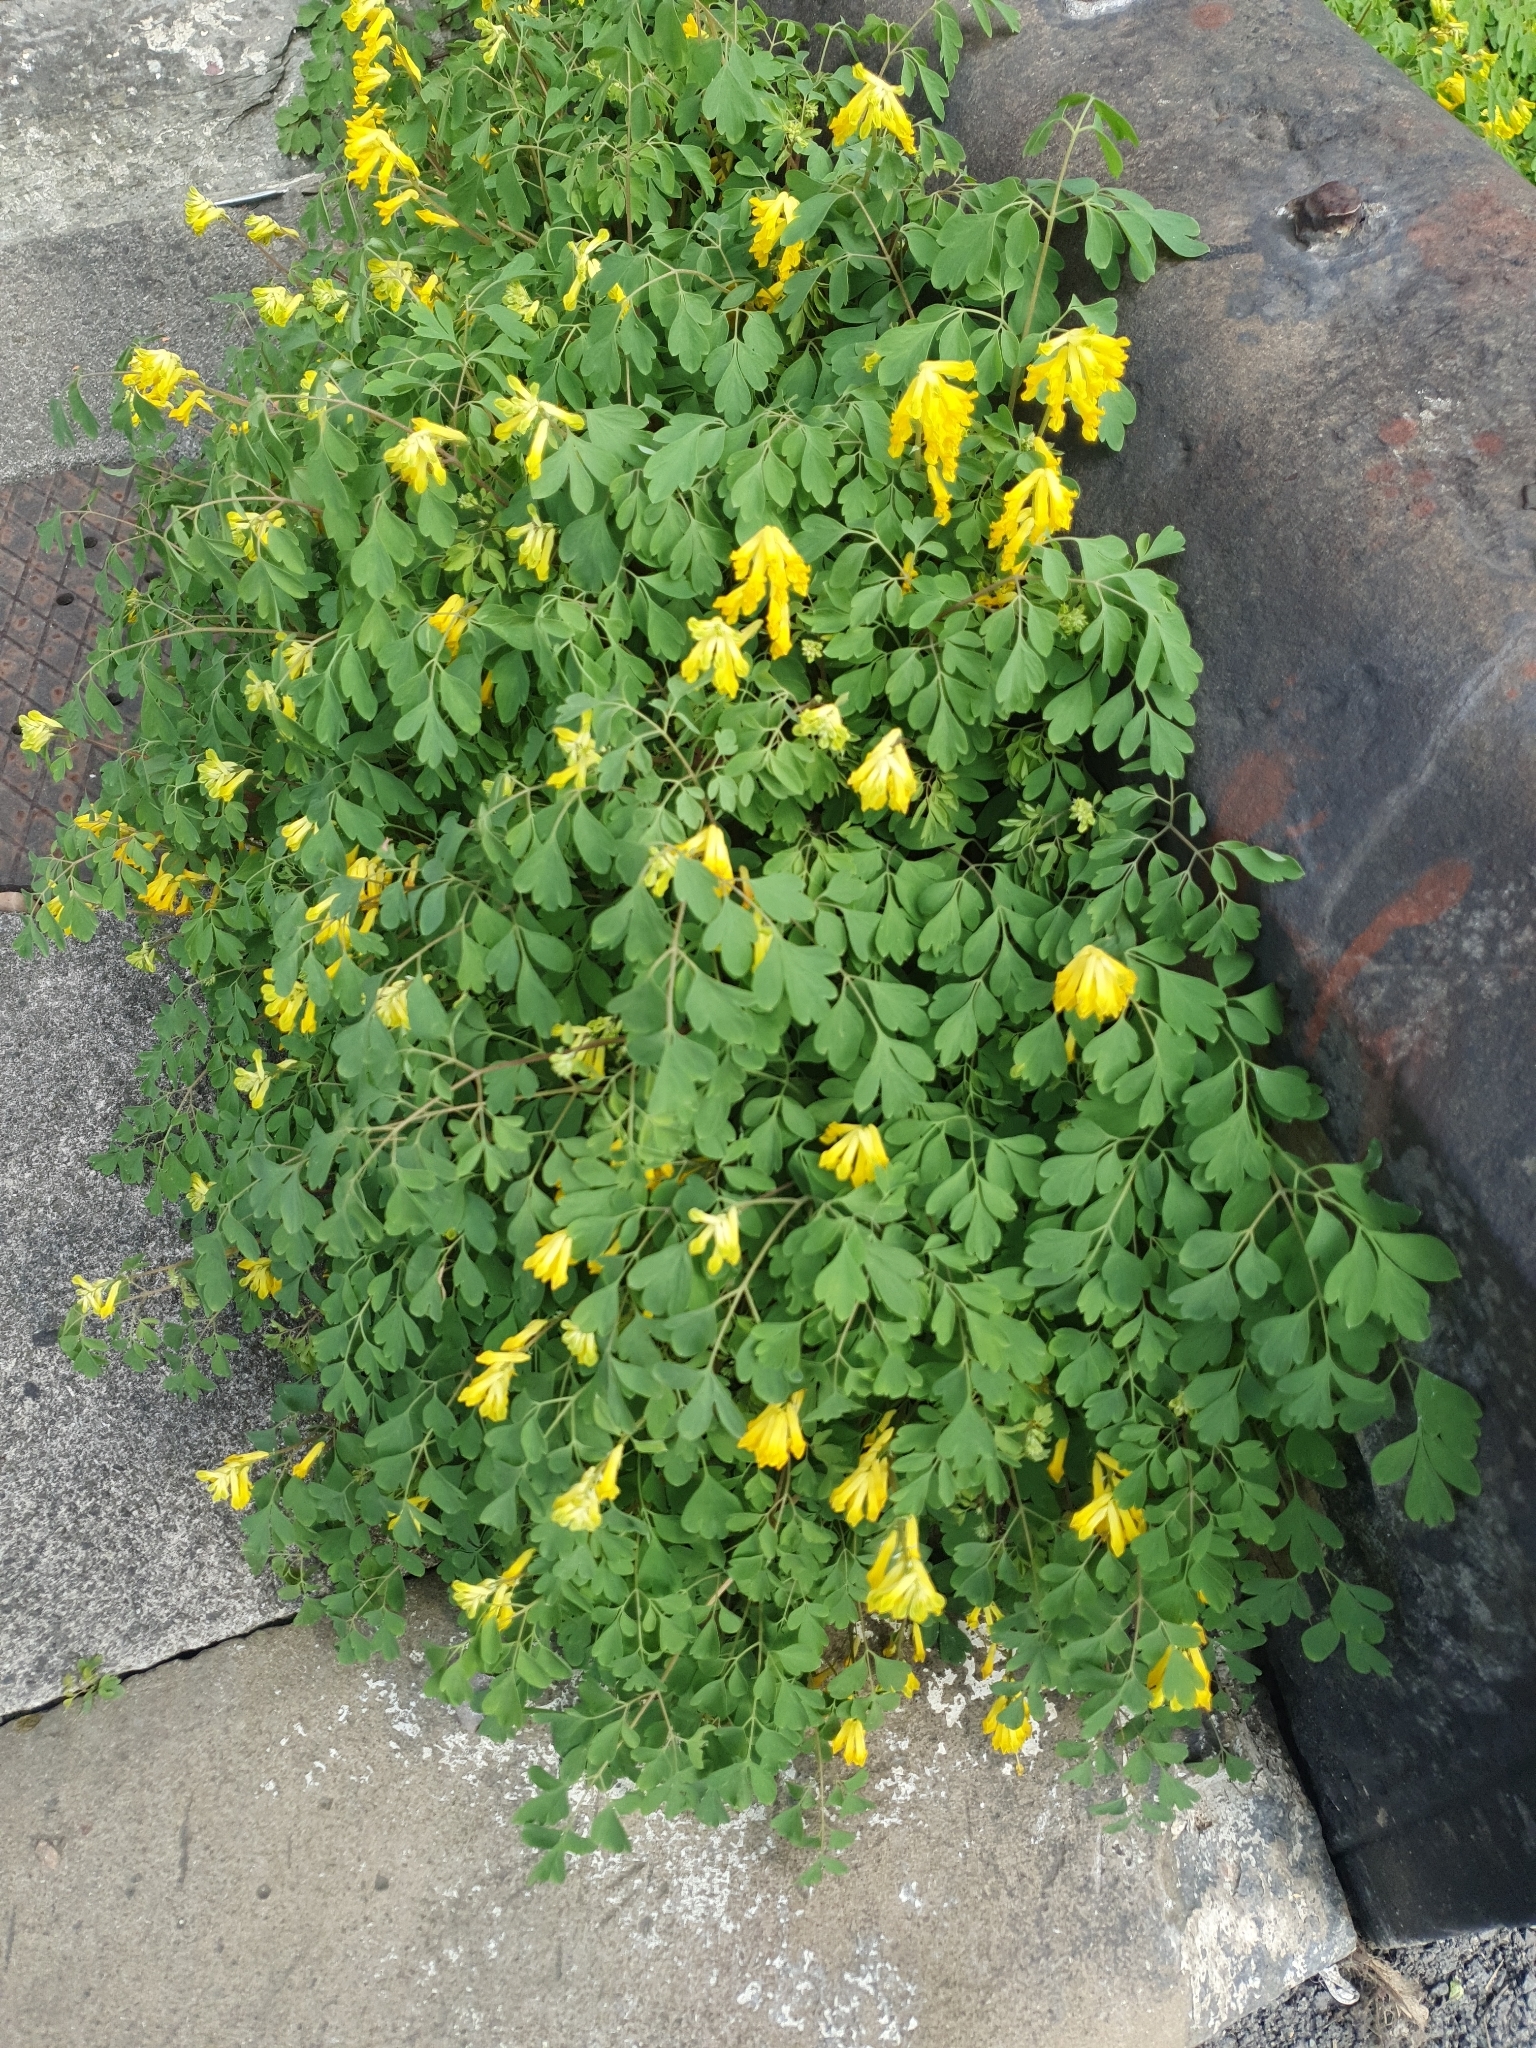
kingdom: Plantae
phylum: Tracheophyta
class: Magnoliopsida
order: Ranunculales
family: Papaveraceae
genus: Pseudofumaria
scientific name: Pseudofumaria lutea
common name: Yellow corydalis
